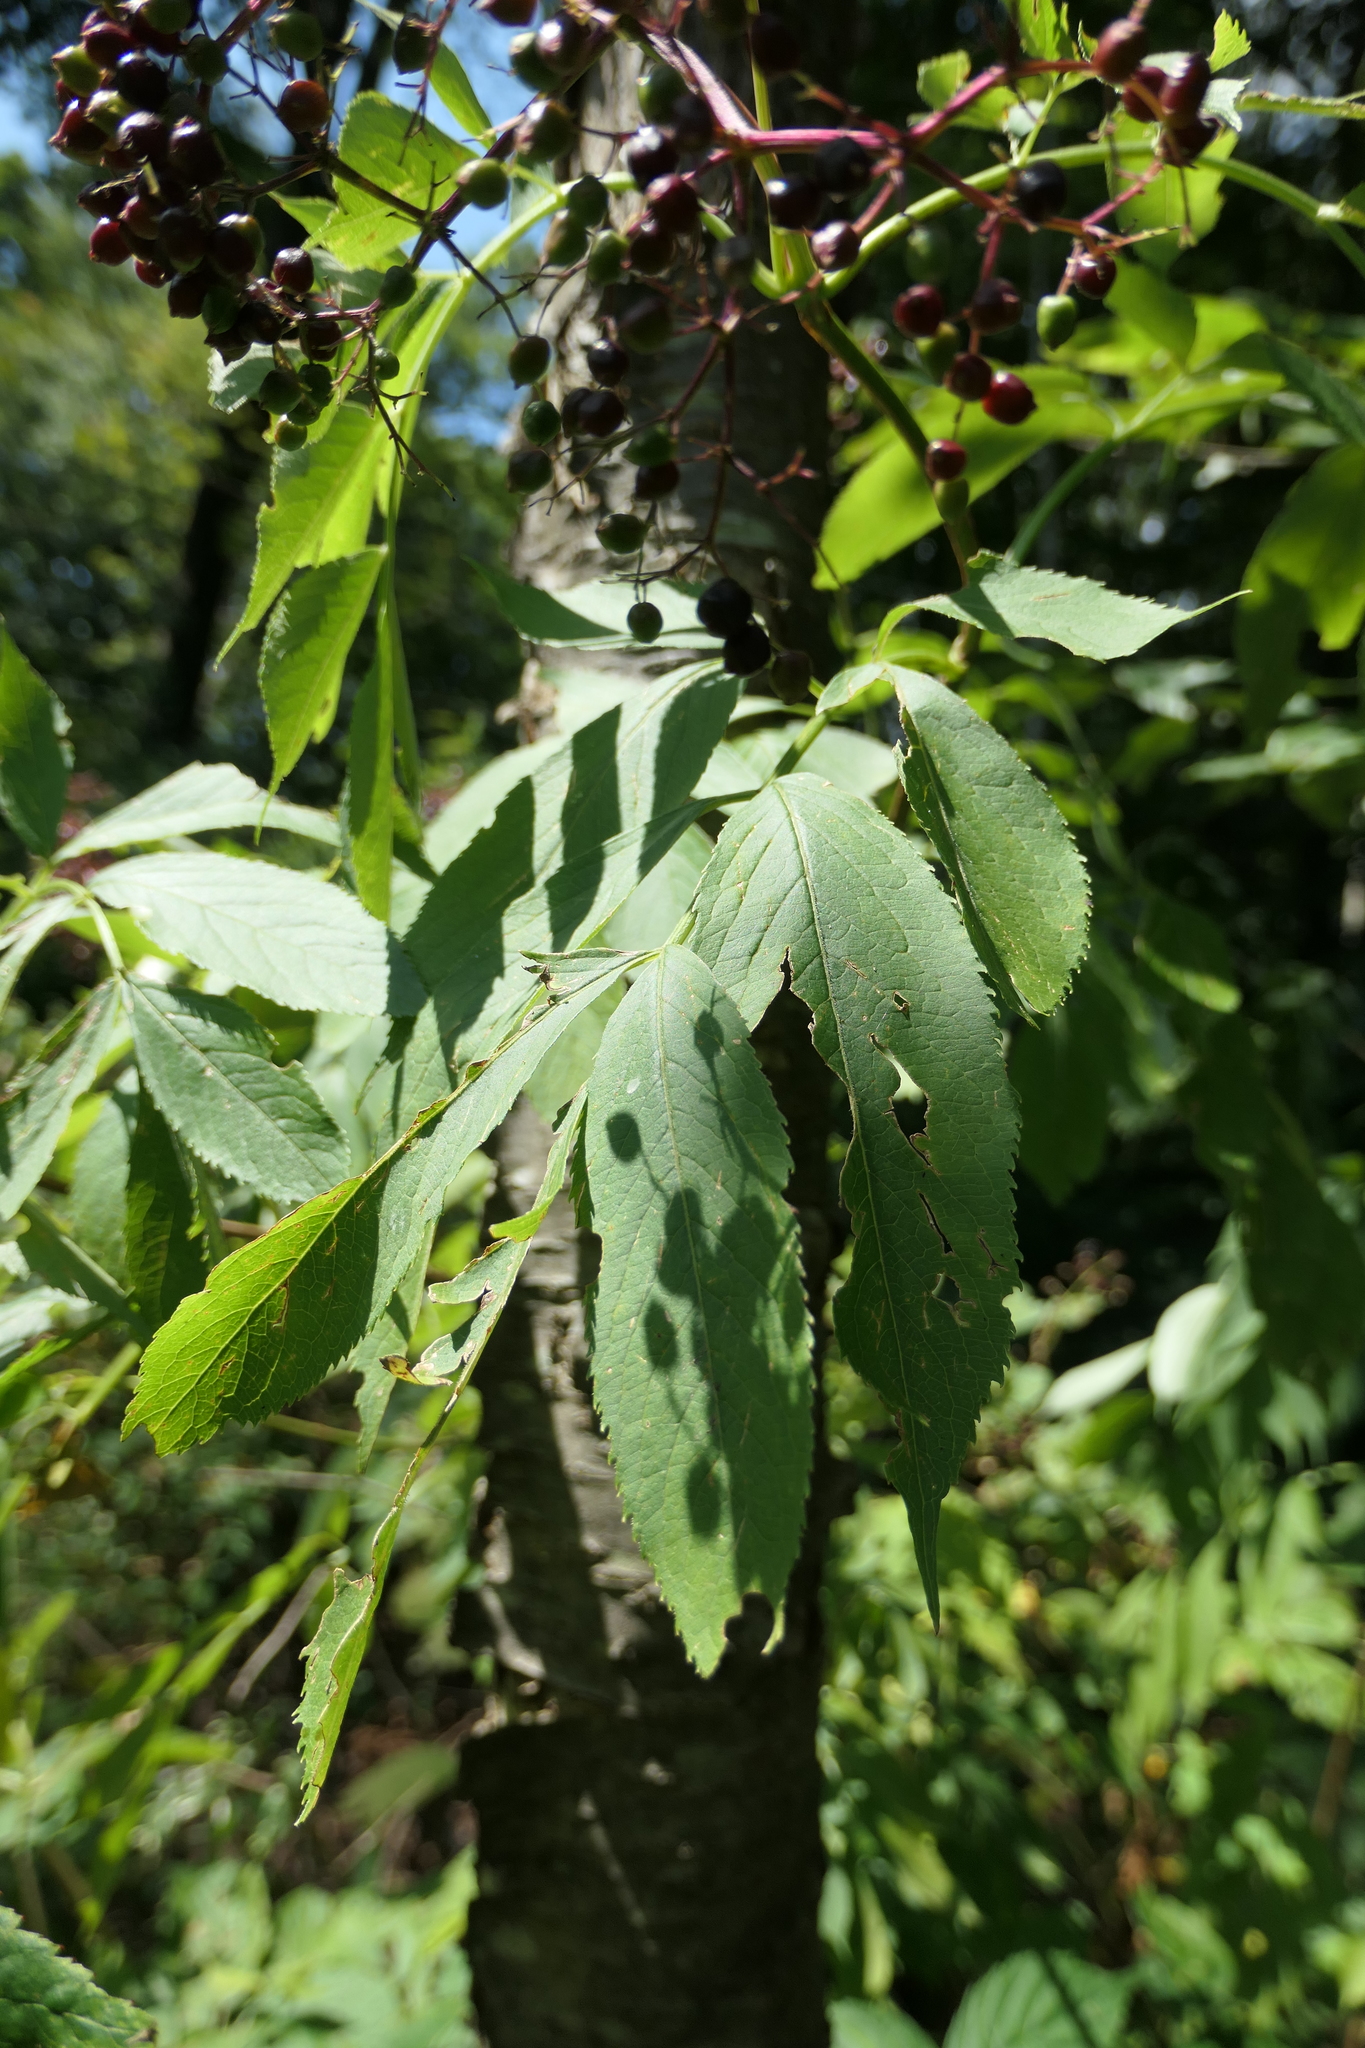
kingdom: Plantae
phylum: Tracheophyta
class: Magnoliopsida
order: Dipsacales
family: Viburnaceae
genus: Sambucus
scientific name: Sambucus canadensis
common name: American elder
